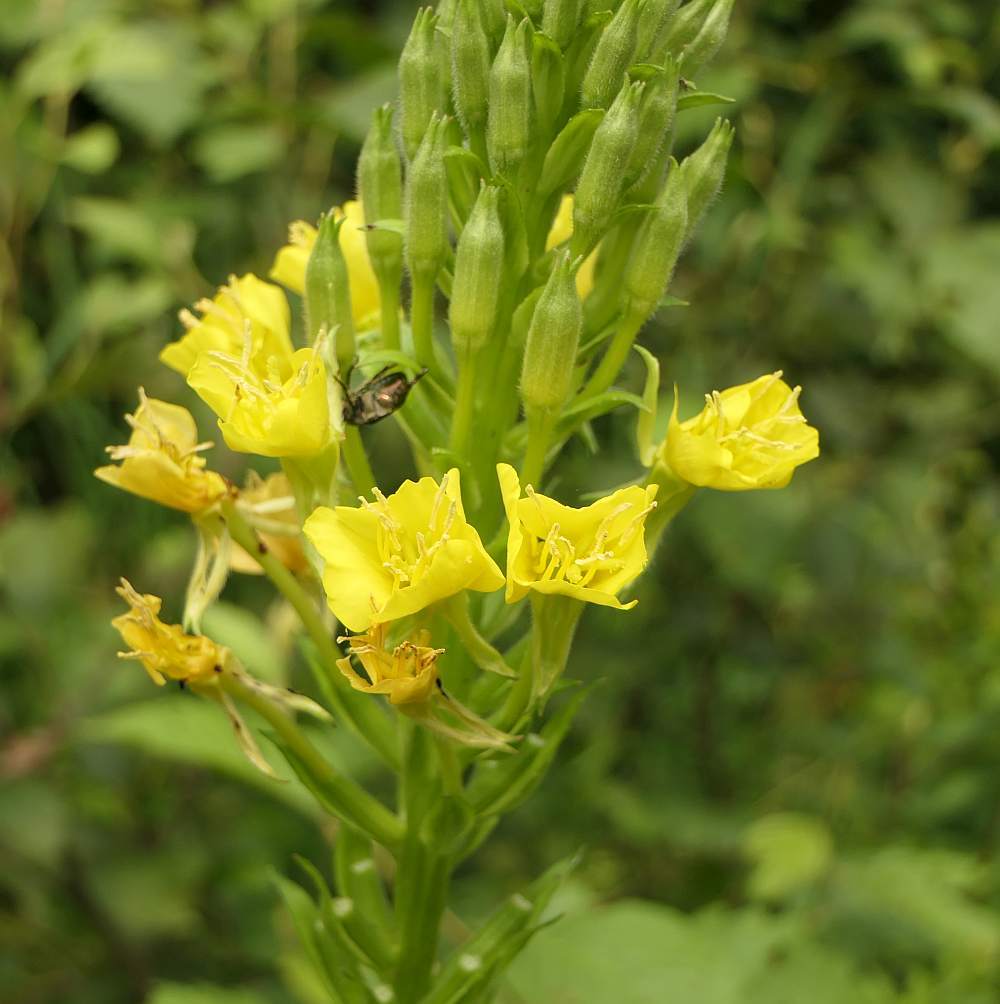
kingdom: Plantae
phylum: Tracheophyta
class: Magnoliopsida
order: Myrtales
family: Onagraceae
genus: Oenothera
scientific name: Oenothera biennis
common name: Common evening-primrose
